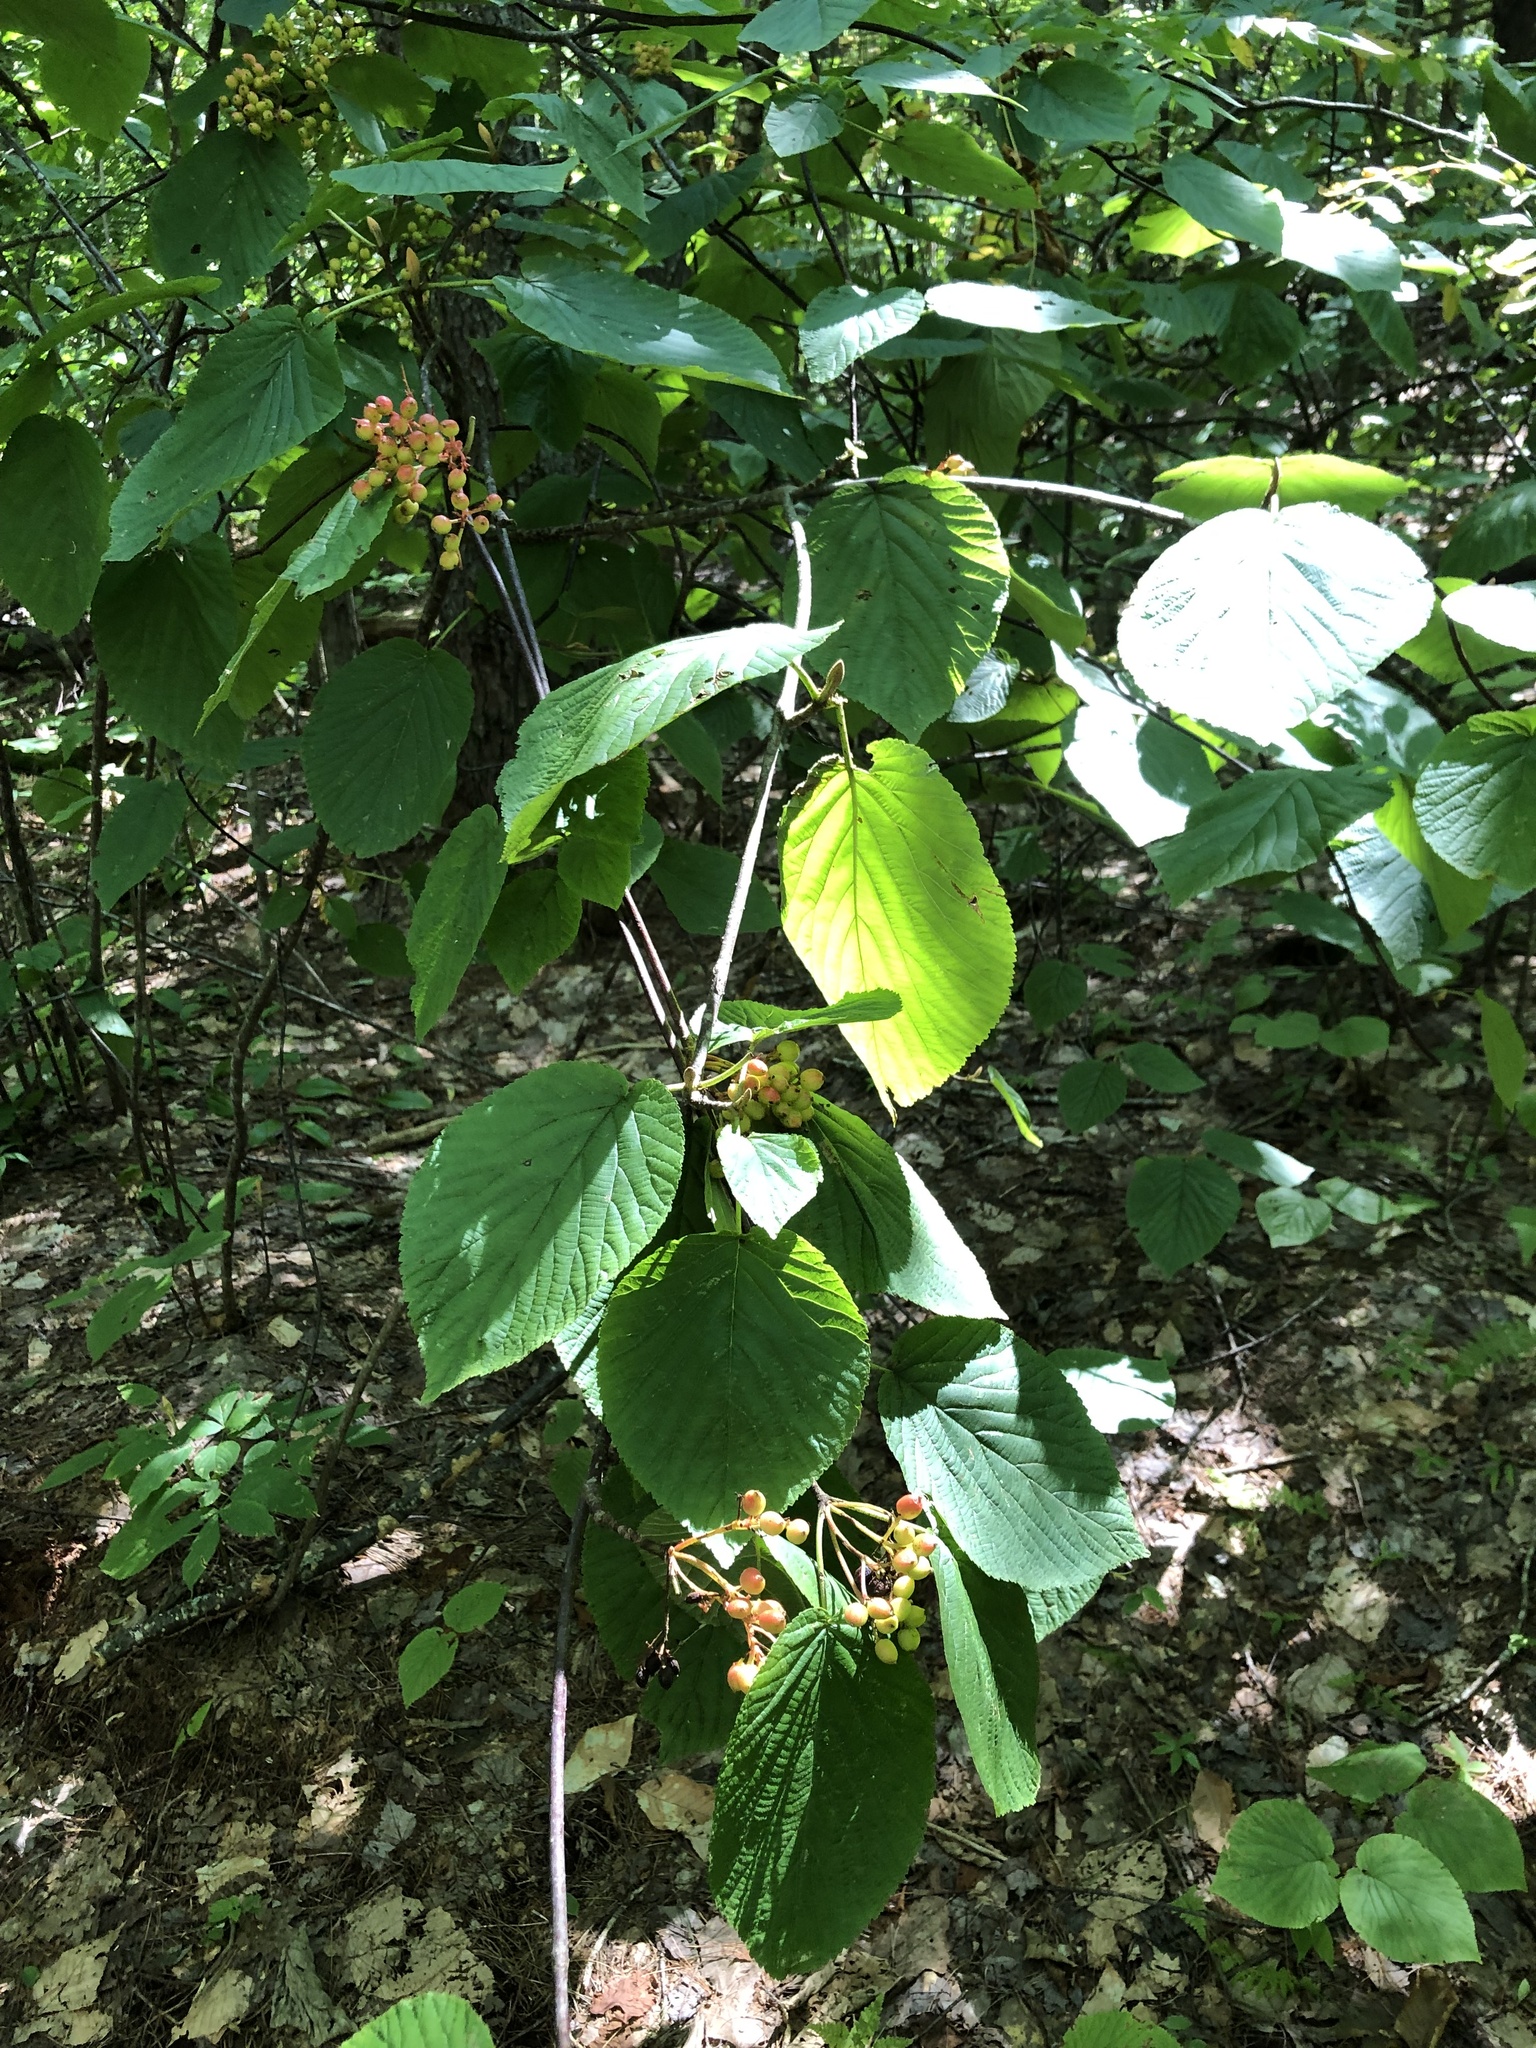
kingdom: Plantae
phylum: Tracheophyta
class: Magnoliopsida
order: Dipsacales
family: Viburnaceae
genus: Viburnum
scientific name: Viburnum lantanoides
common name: Hobblebush
